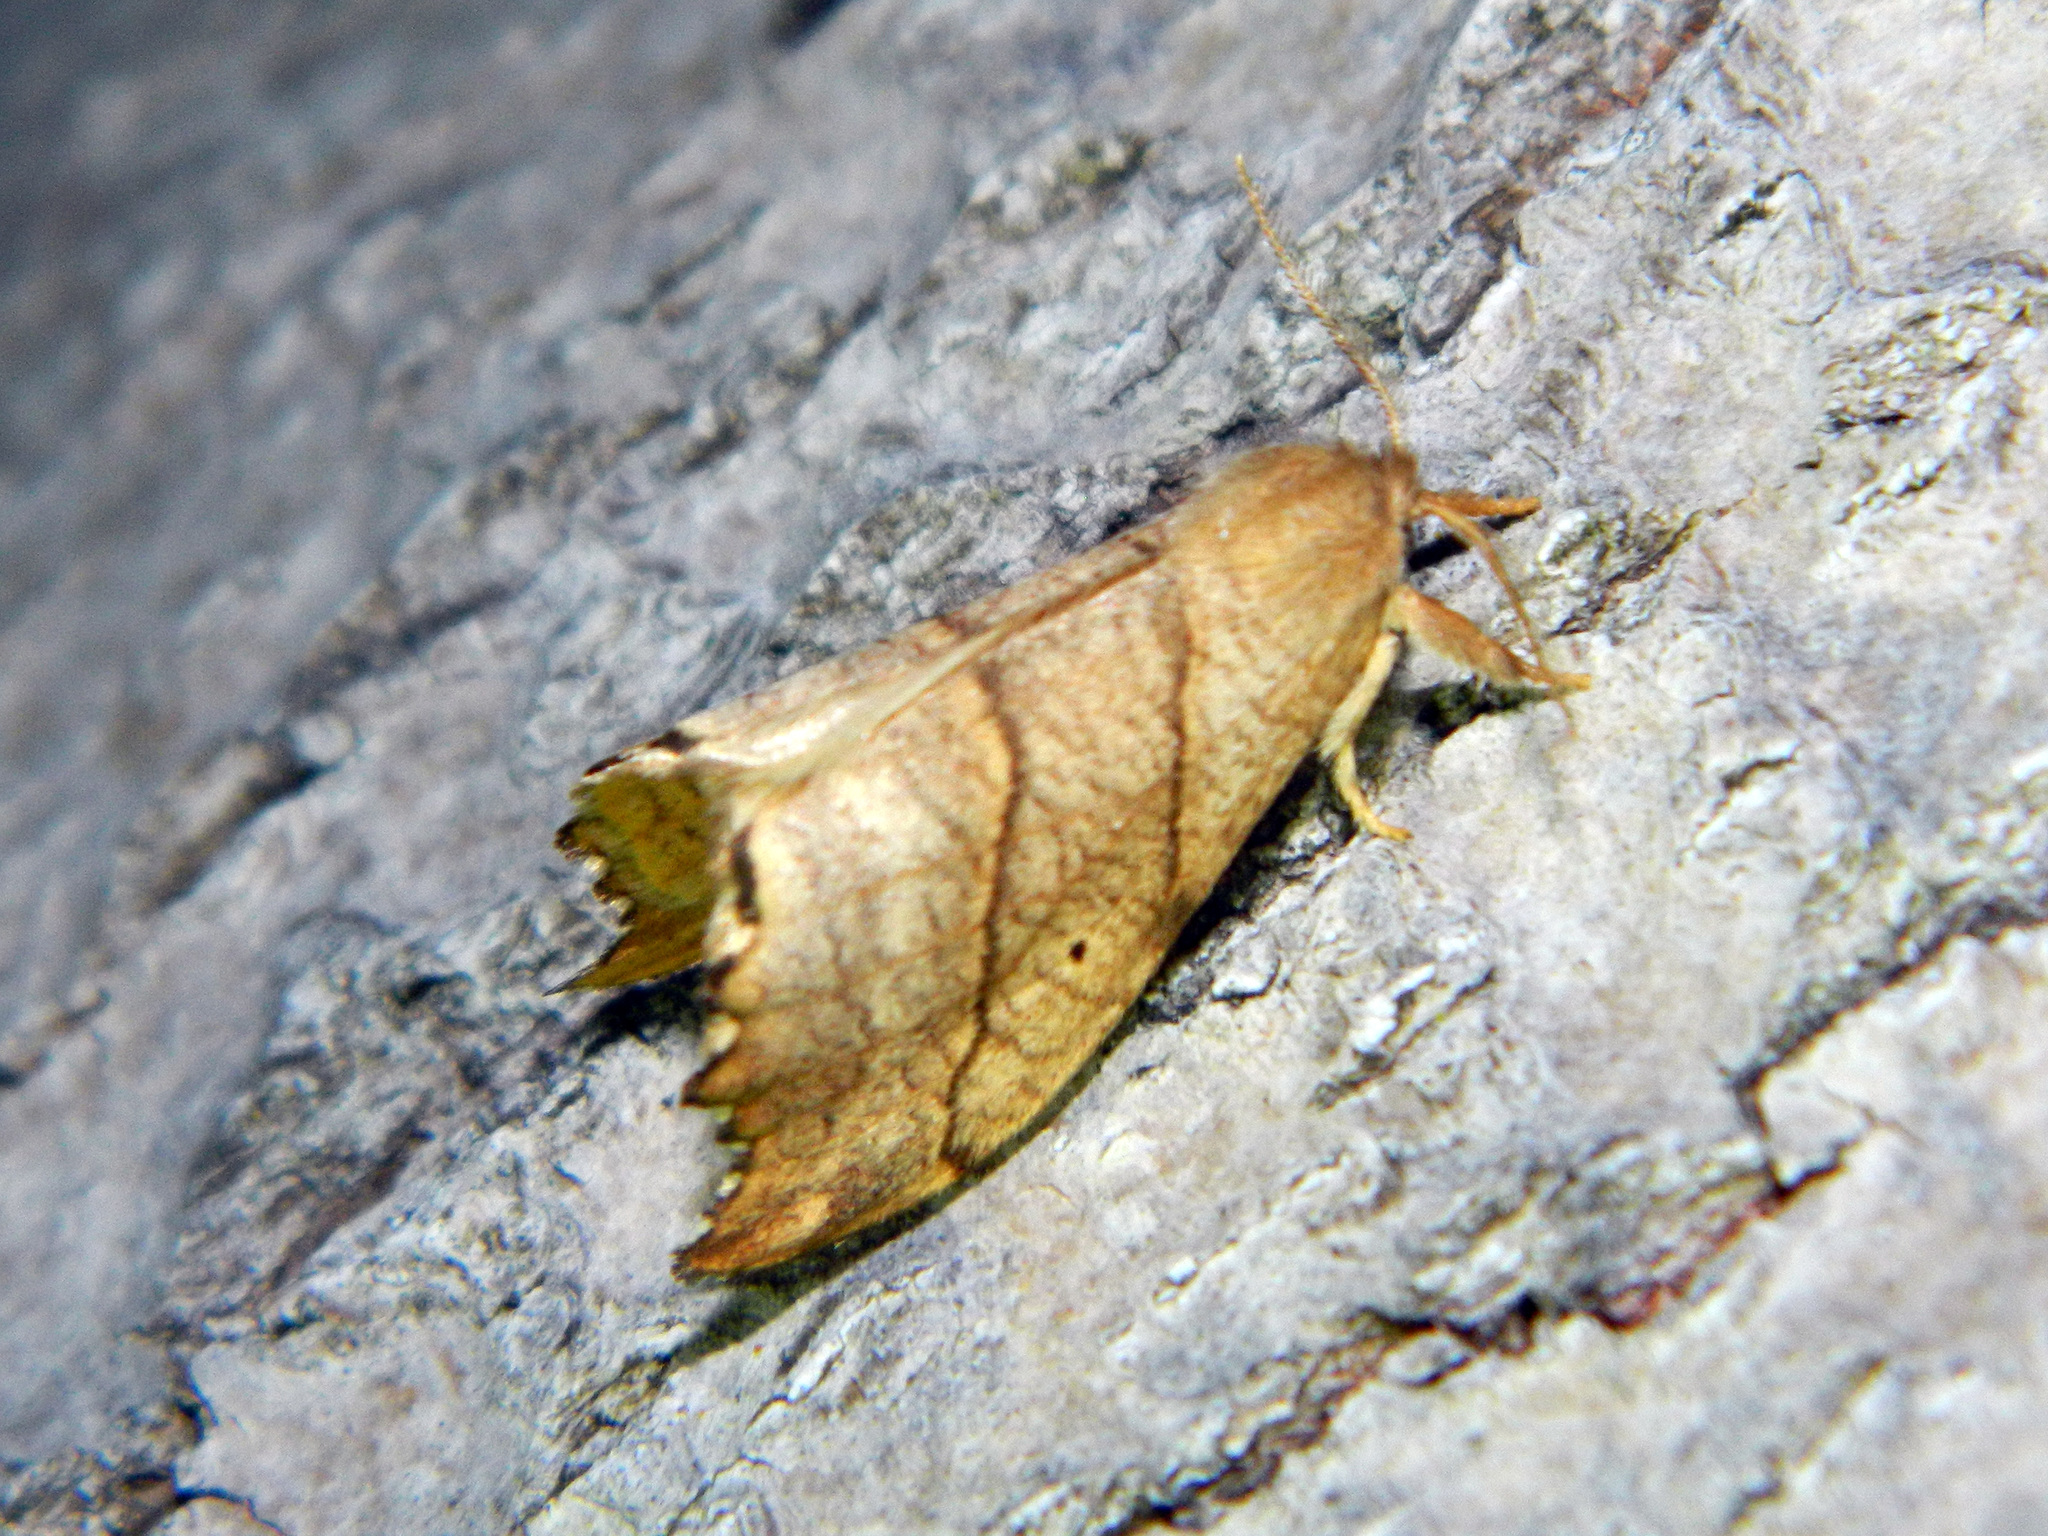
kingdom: Animalia
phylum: Arthropoda
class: Insecta
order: Lepidoptera
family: Drepanidae
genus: Falcaria
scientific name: Falcaria bilineata
